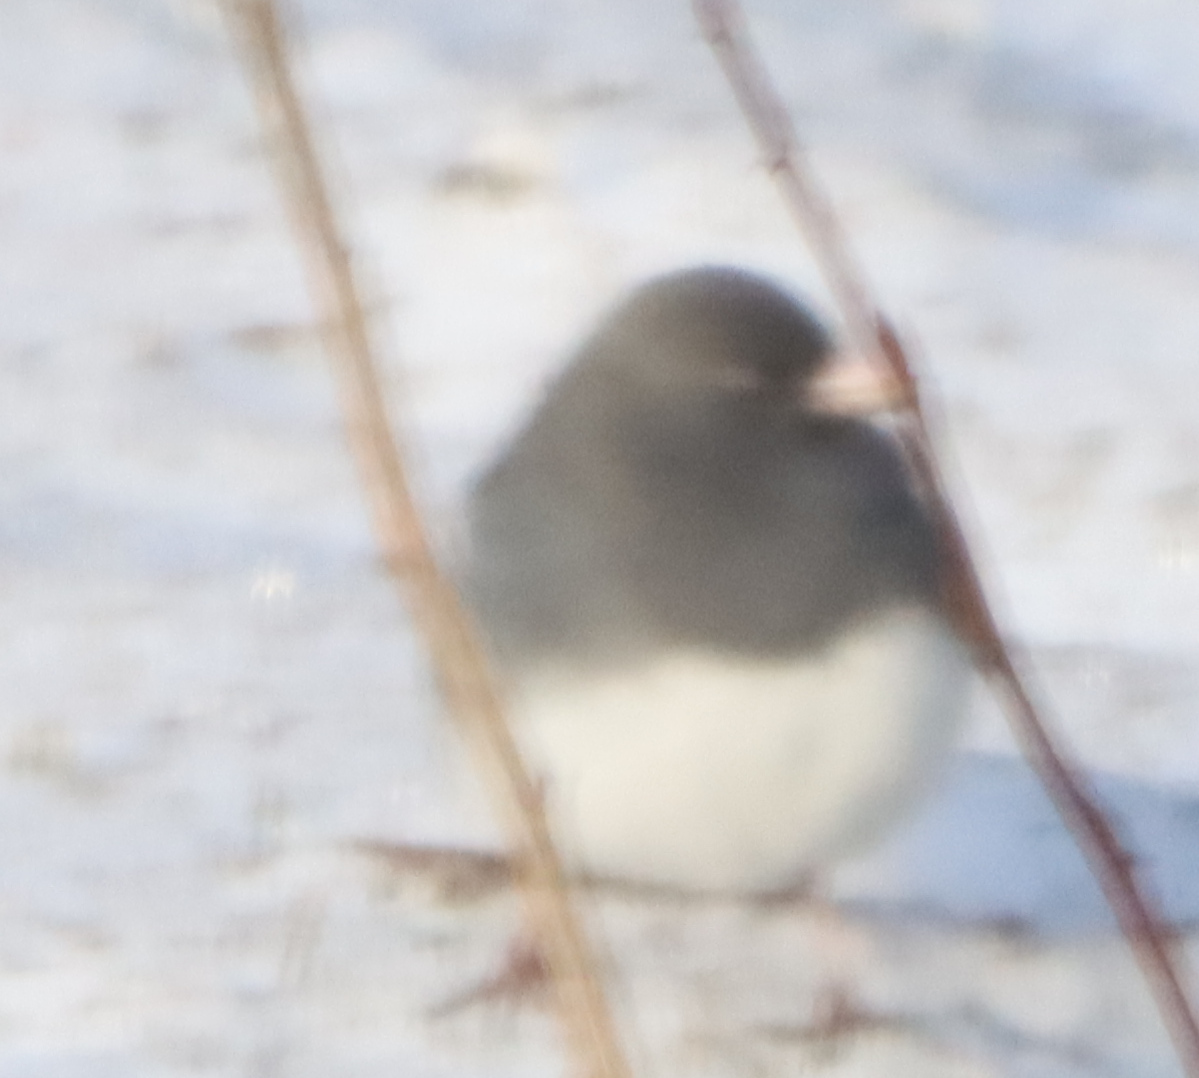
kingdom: Animalia
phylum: Chordata
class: Aves
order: Passeriformes
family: Passerellidae
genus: Junco
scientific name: Junco hyemalis
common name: Dark-eyed junco
